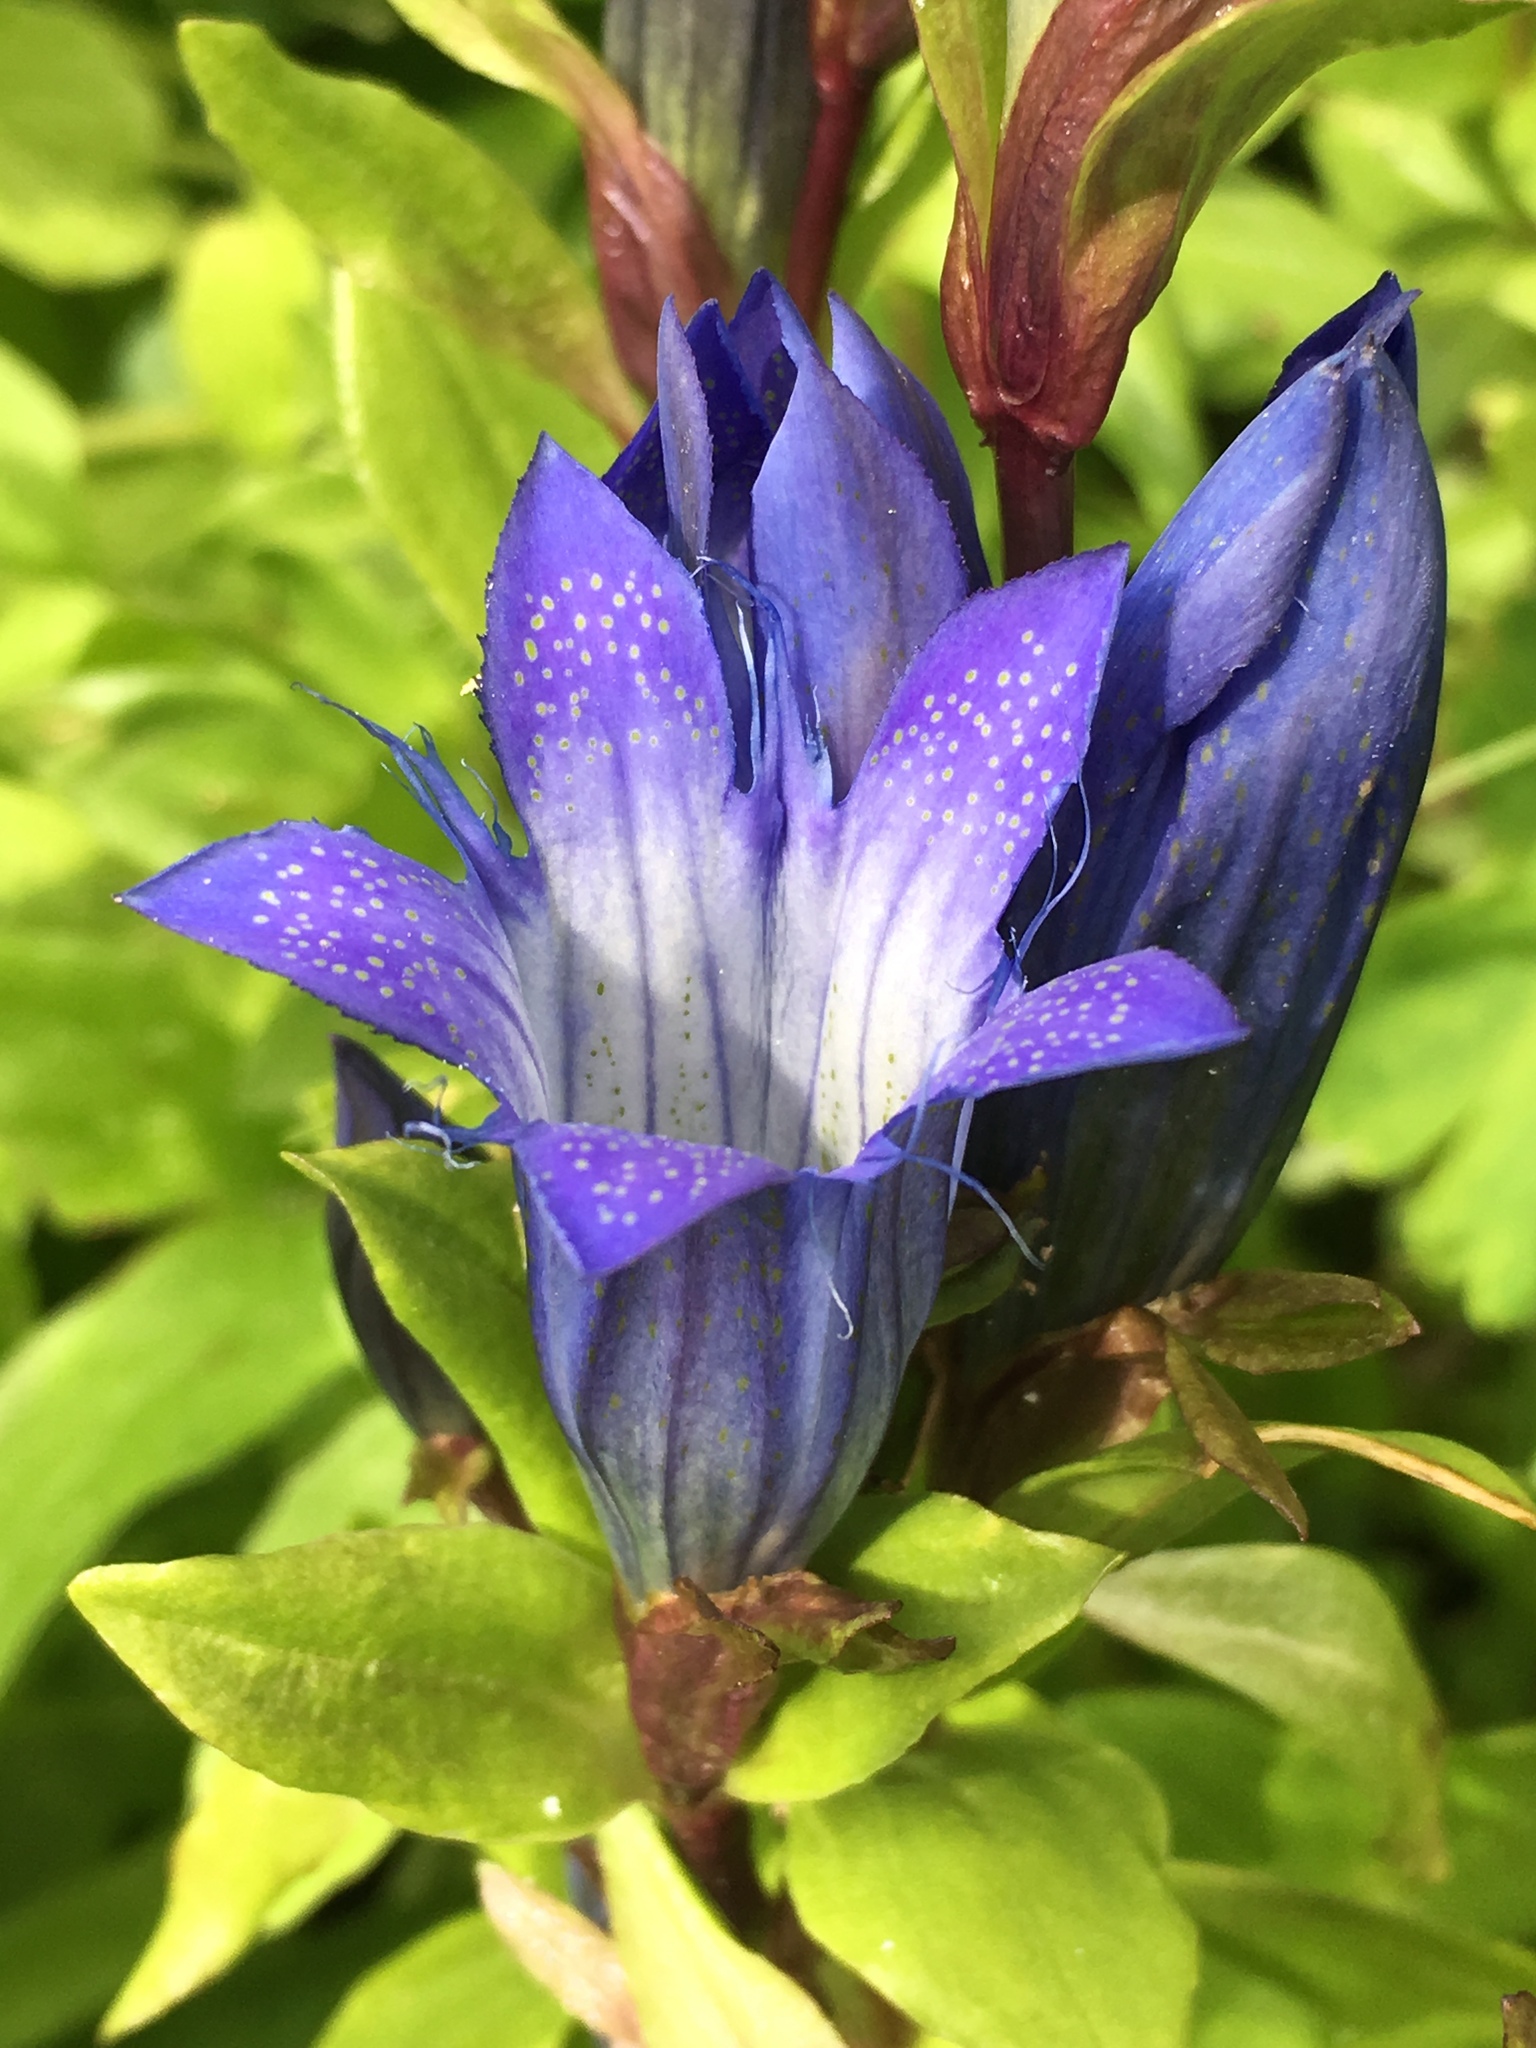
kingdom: Plantae
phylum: Tracheophyta
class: Magnoliopsida
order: Gentianales
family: Gentianaceae
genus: Gentiana
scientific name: Gentiana calycosa
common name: Rainier pleated gentian
